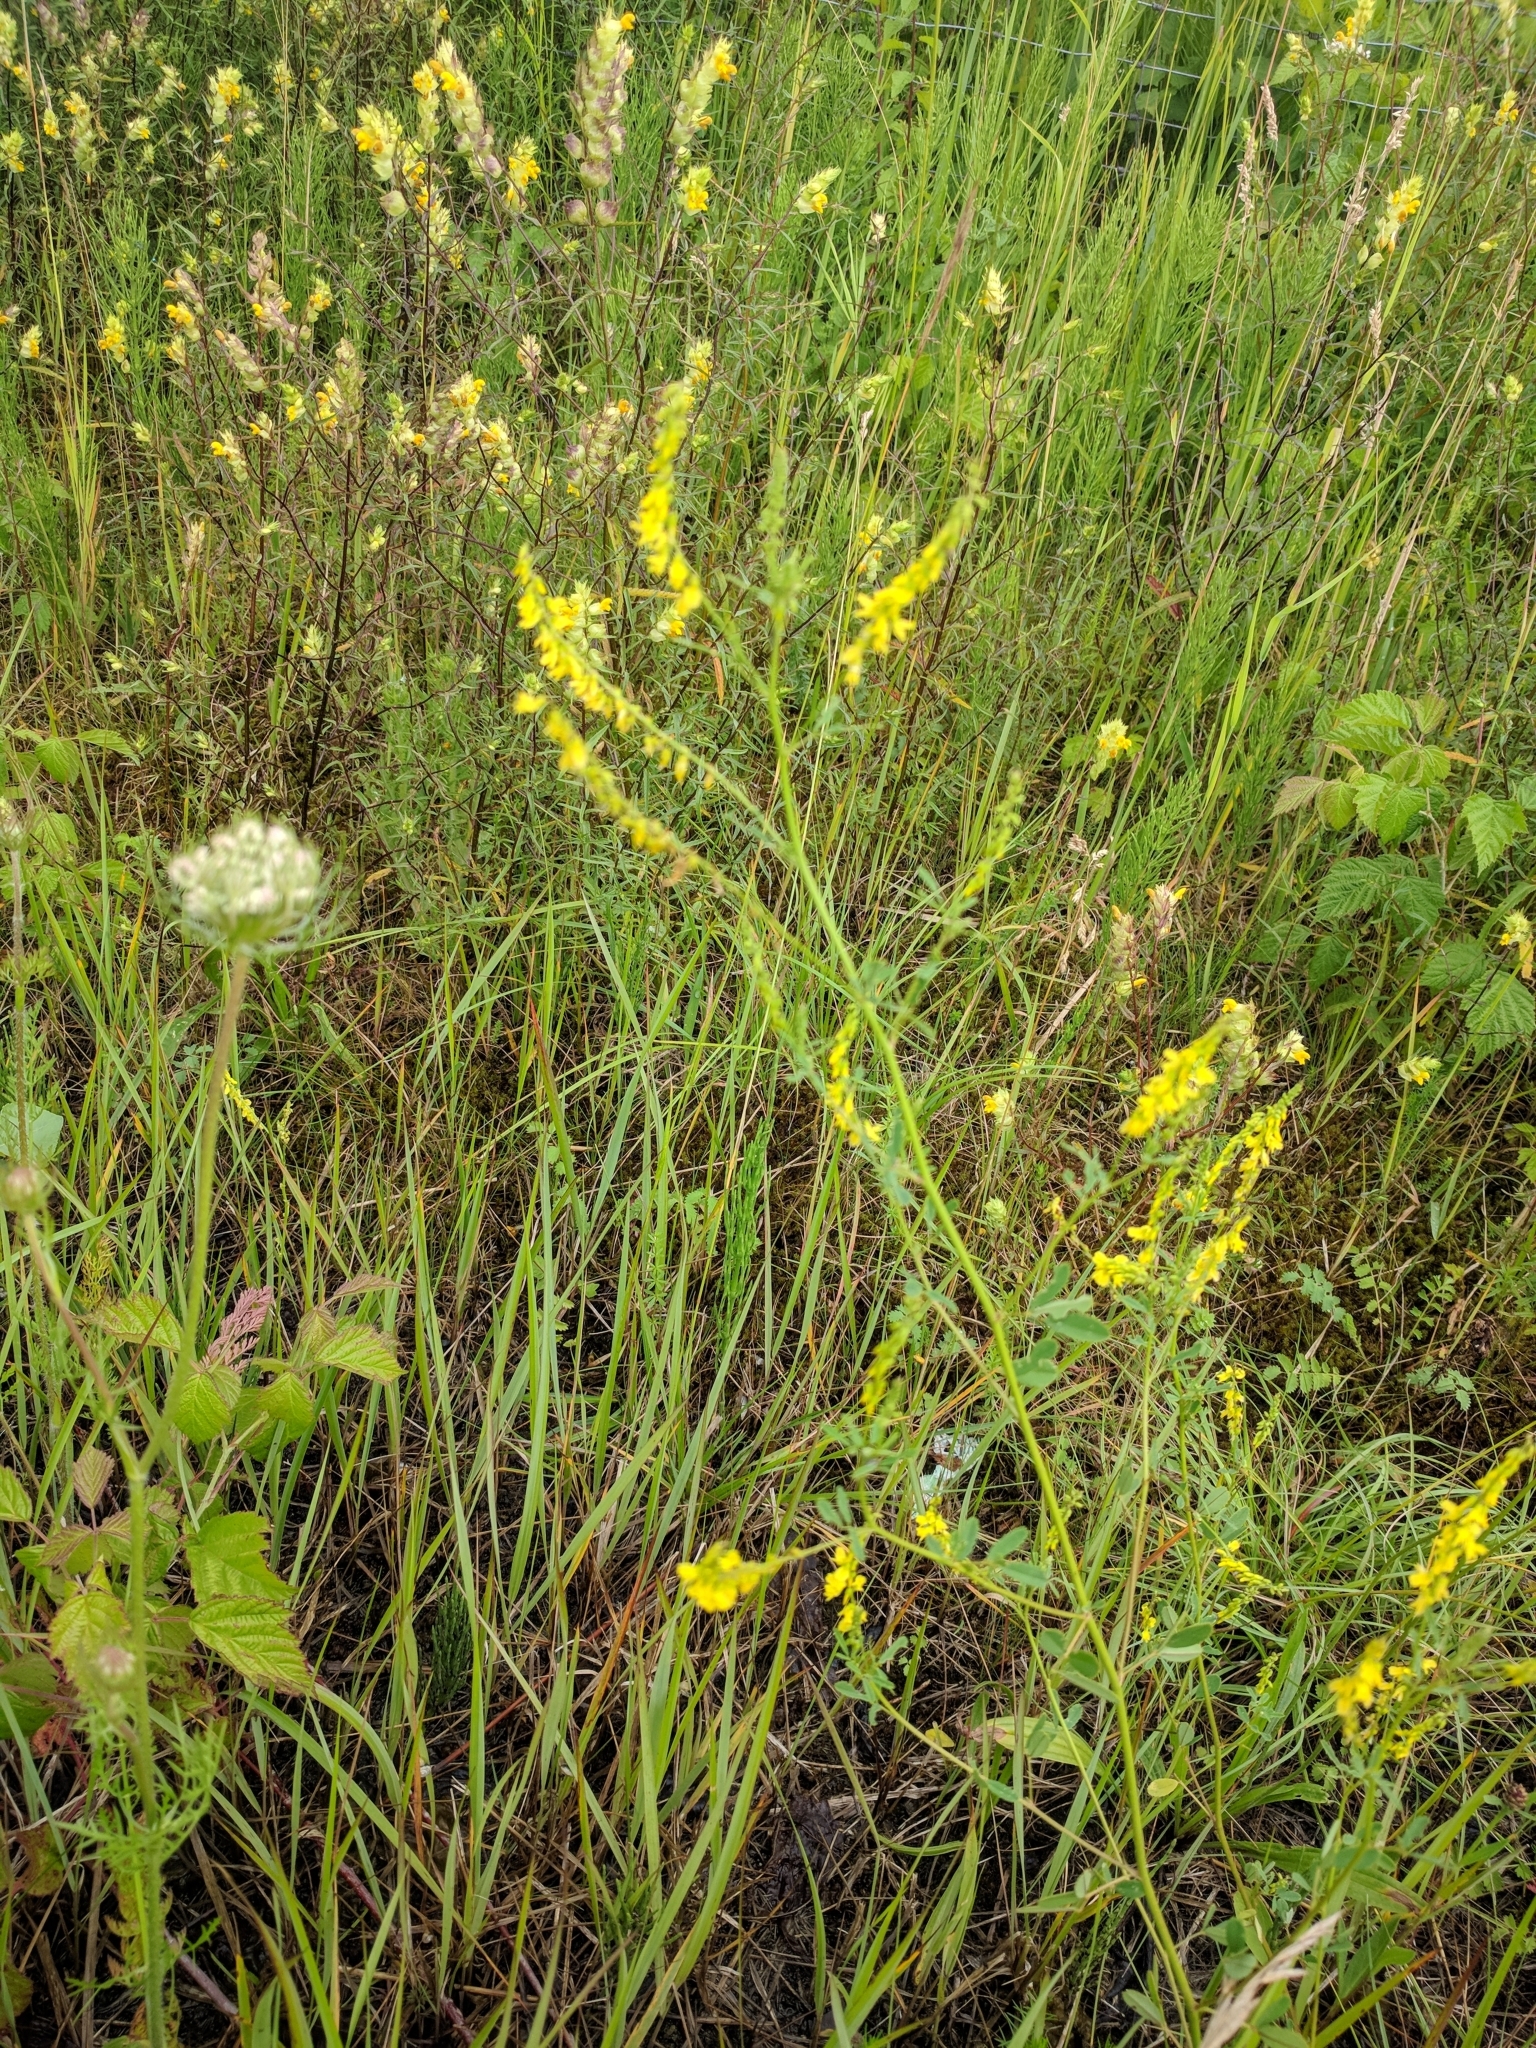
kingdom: Plantae
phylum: Tracheophyta
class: Magnoliopsida
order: Fabales
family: Fabaceae
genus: Melilotus
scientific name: Melilotus officinalis
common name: Sweetclover
